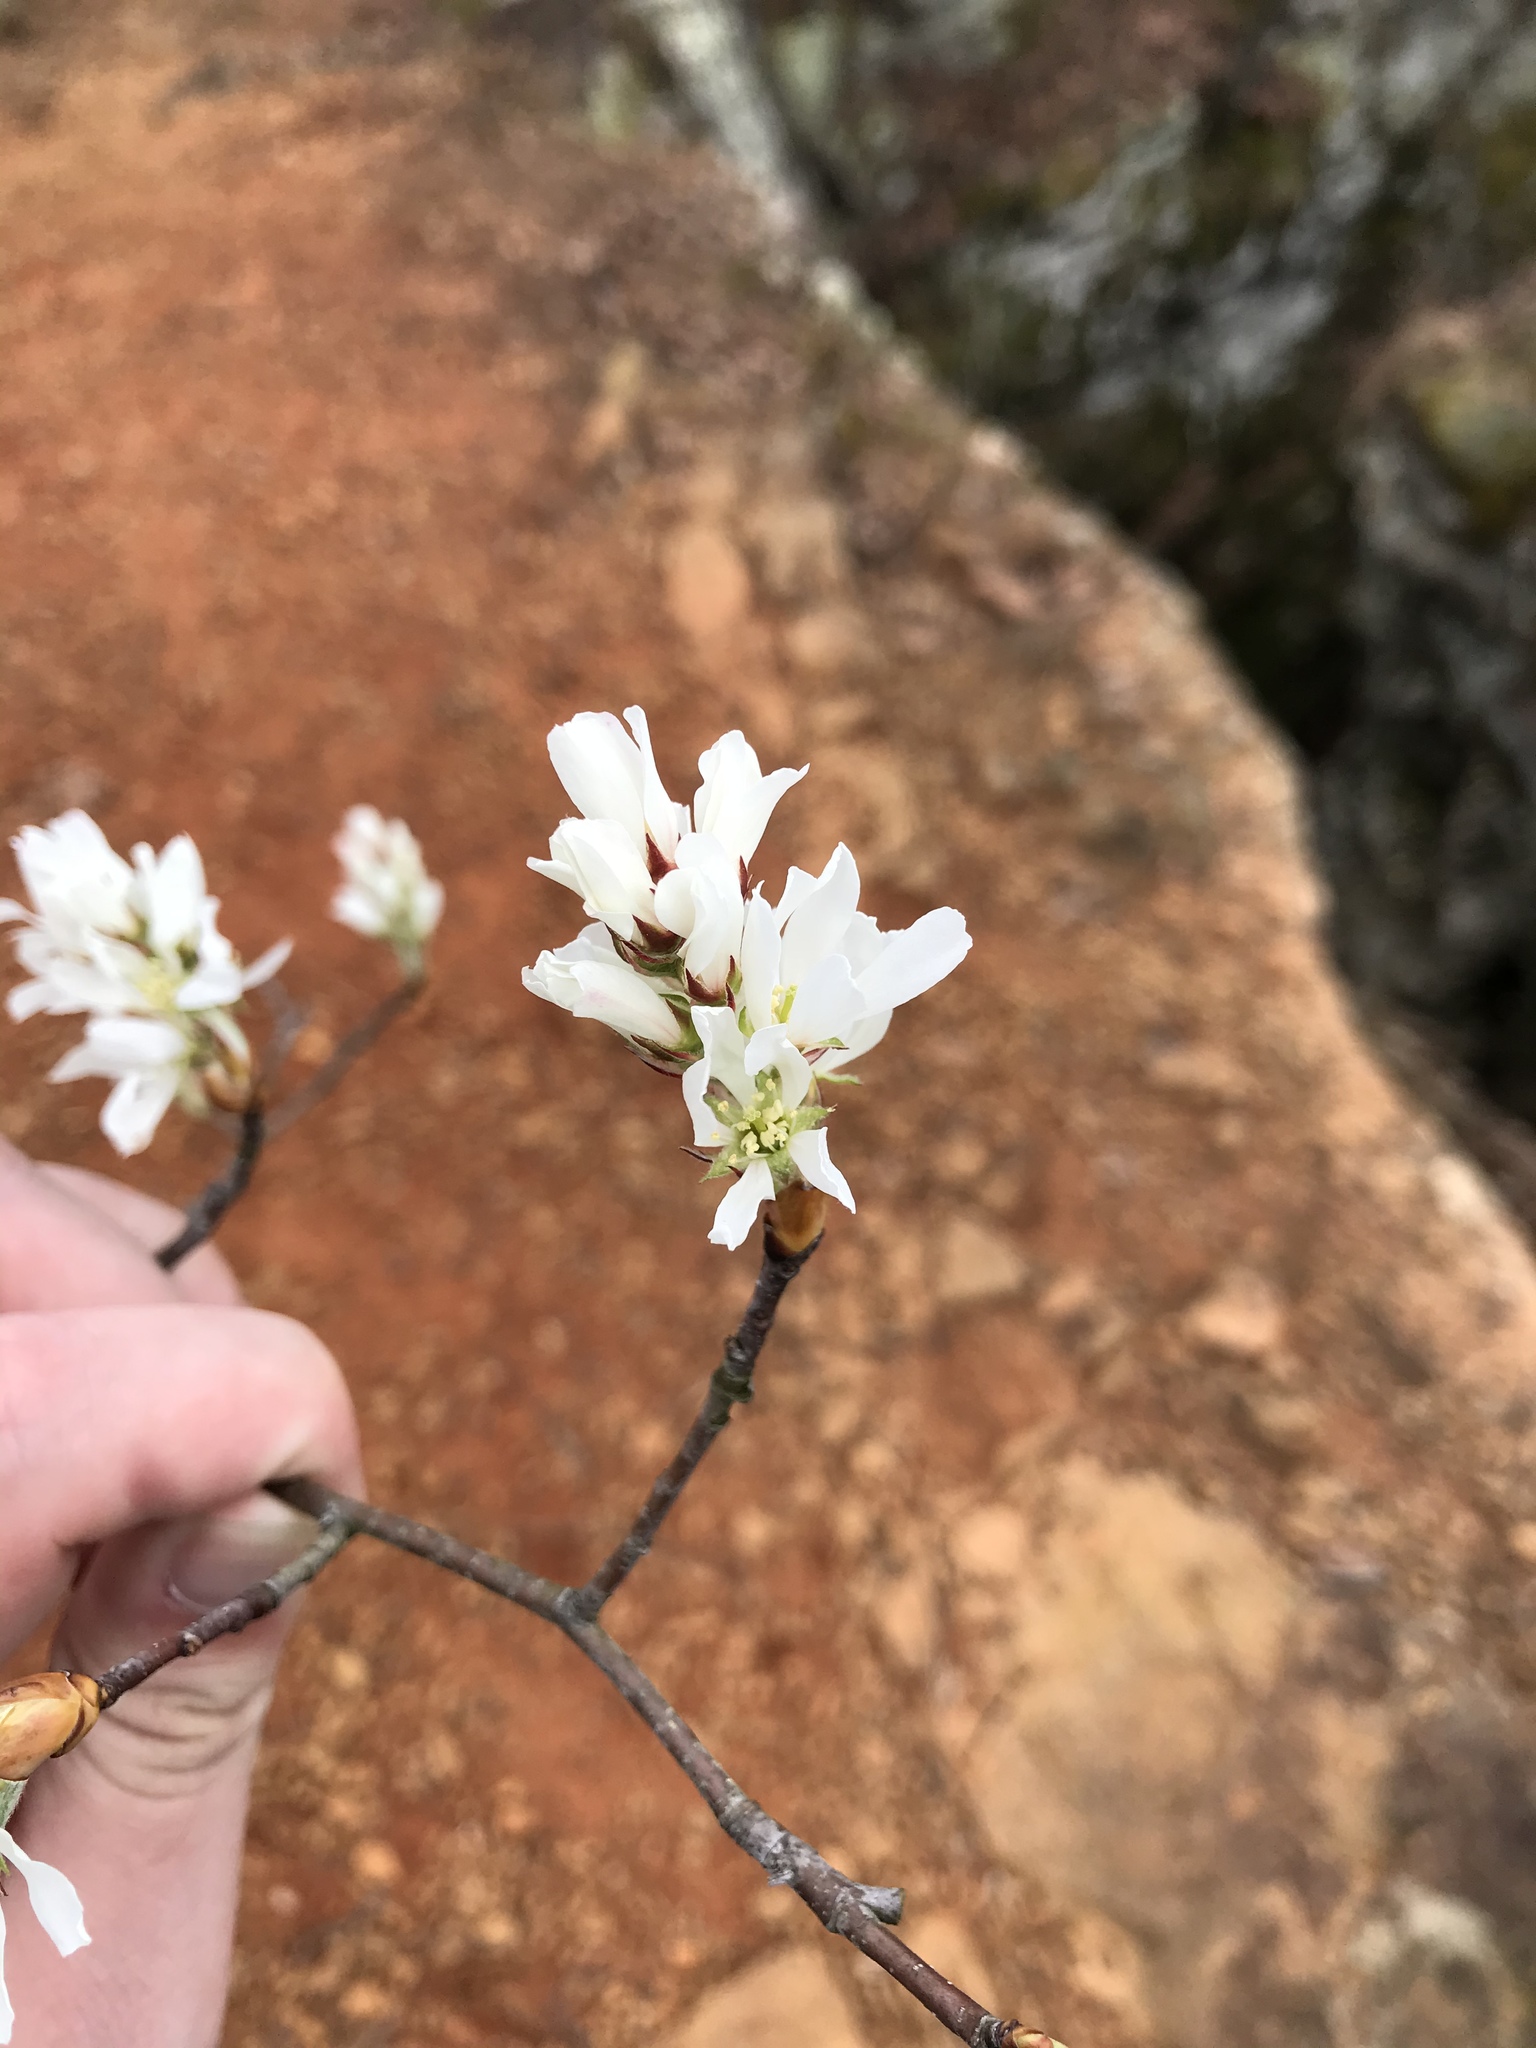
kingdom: Plantae
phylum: Tracheophyta
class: Magnoliopsida
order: Rosales
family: Rosaceae
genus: Amelanchier
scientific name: Amelanchier arborea
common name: Downy serviceberry
